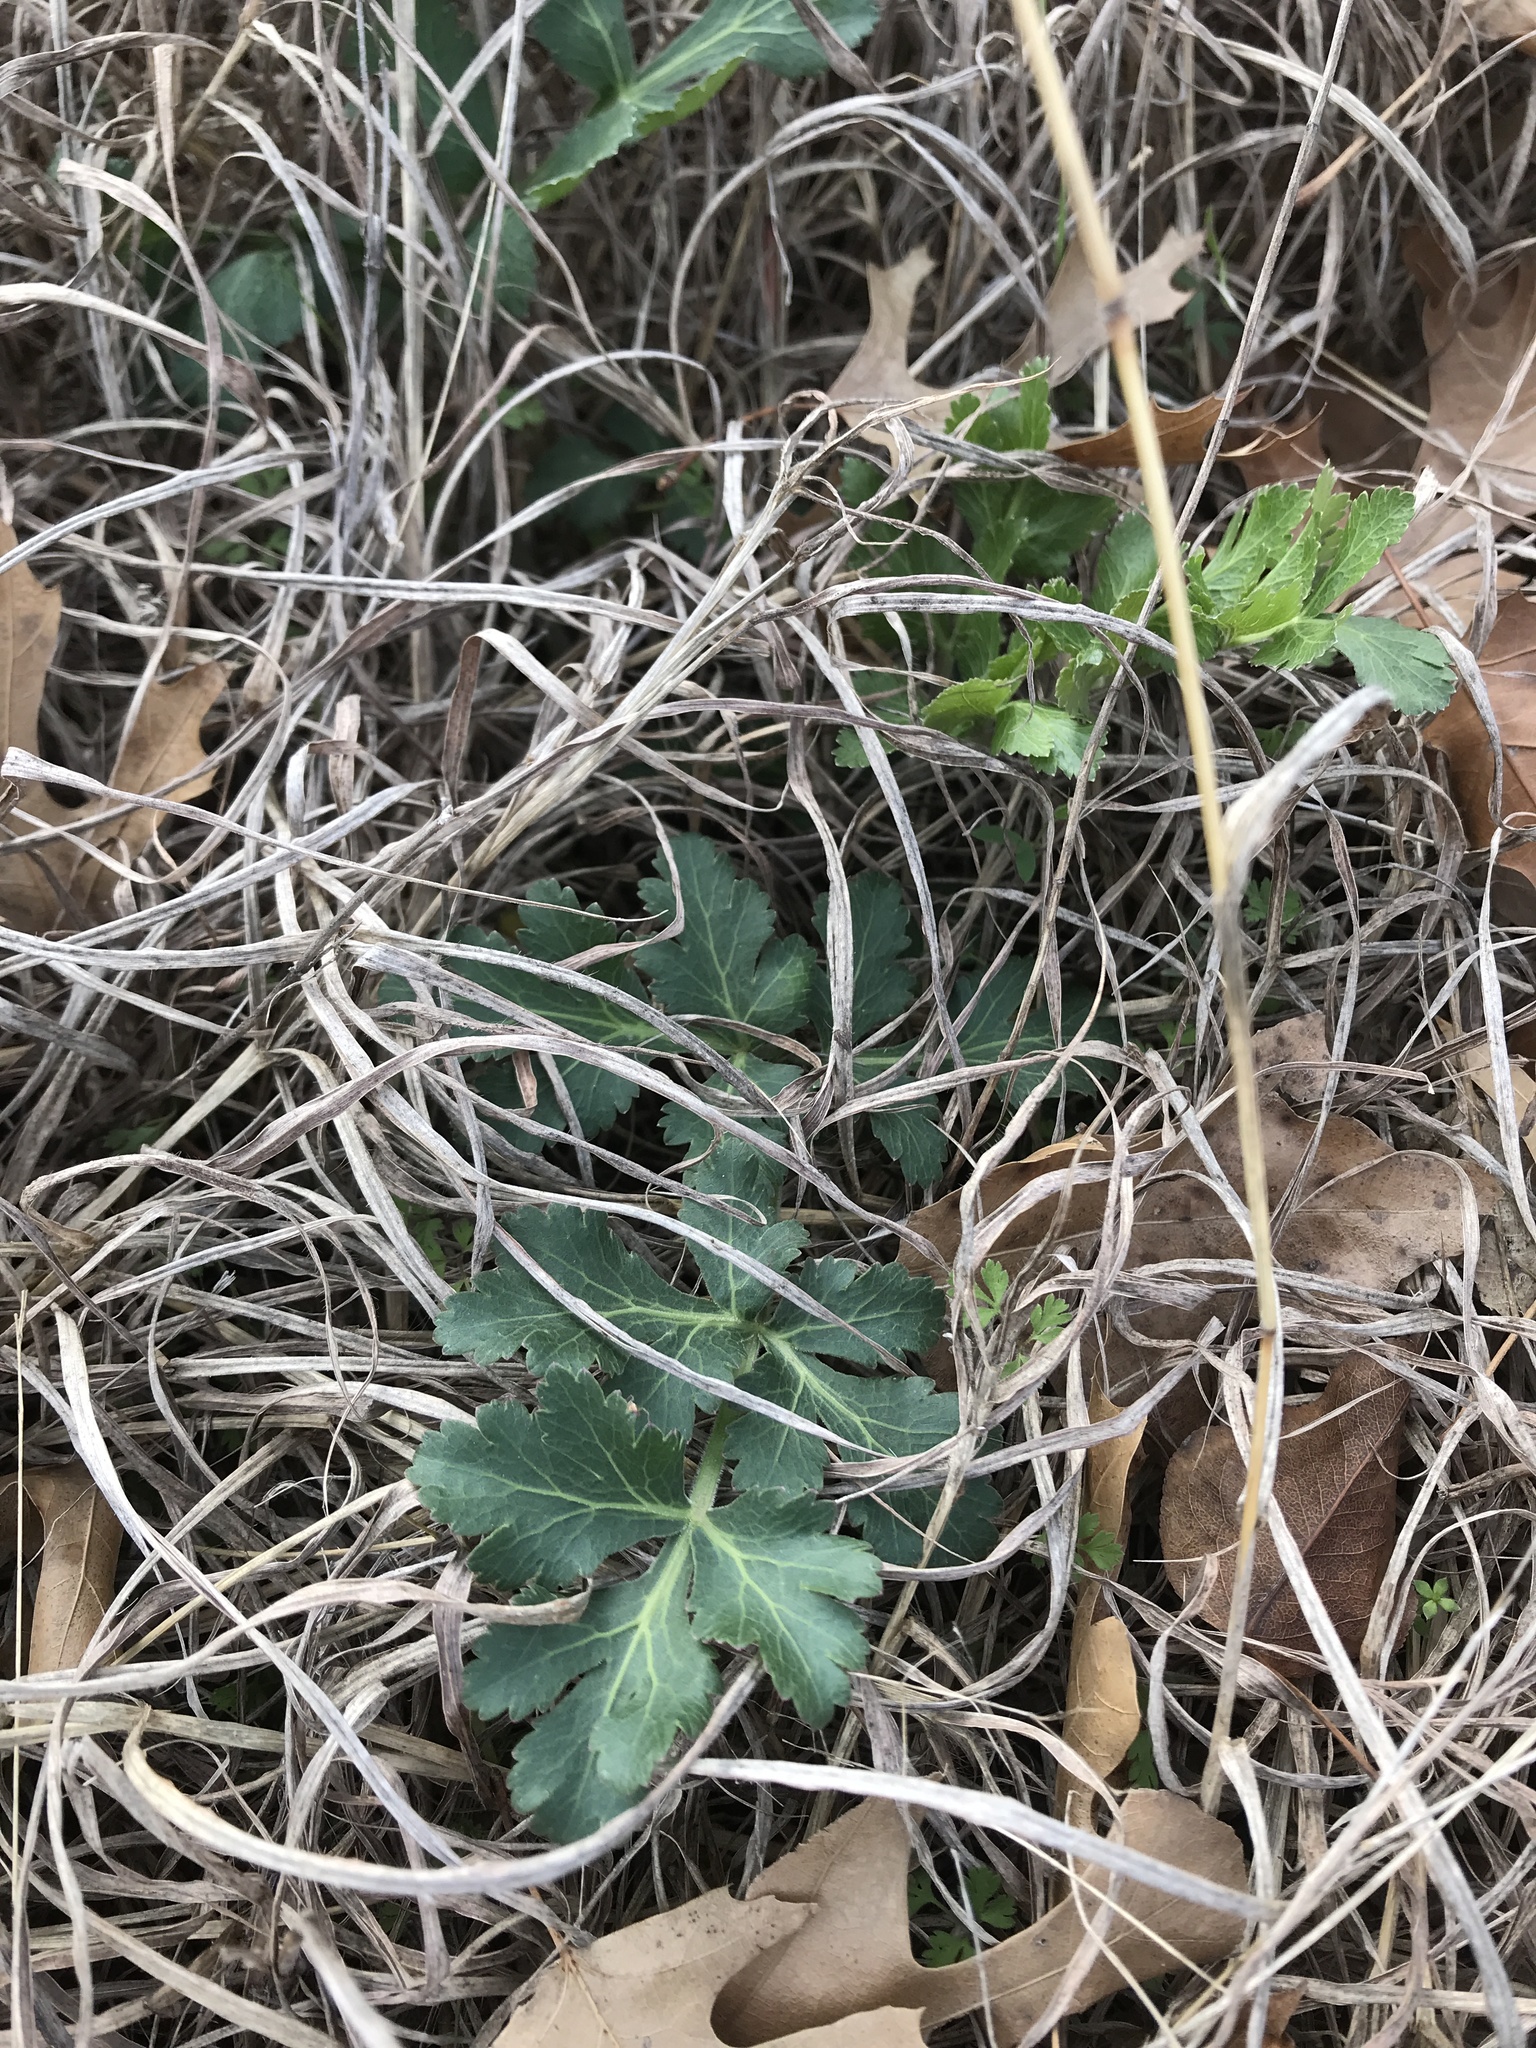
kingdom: Plantae
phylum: Tracheophyta
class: Magnoliopsida
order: Apiales
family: Apiaceae
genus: Polytaenia
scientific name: Polytaenia texana
